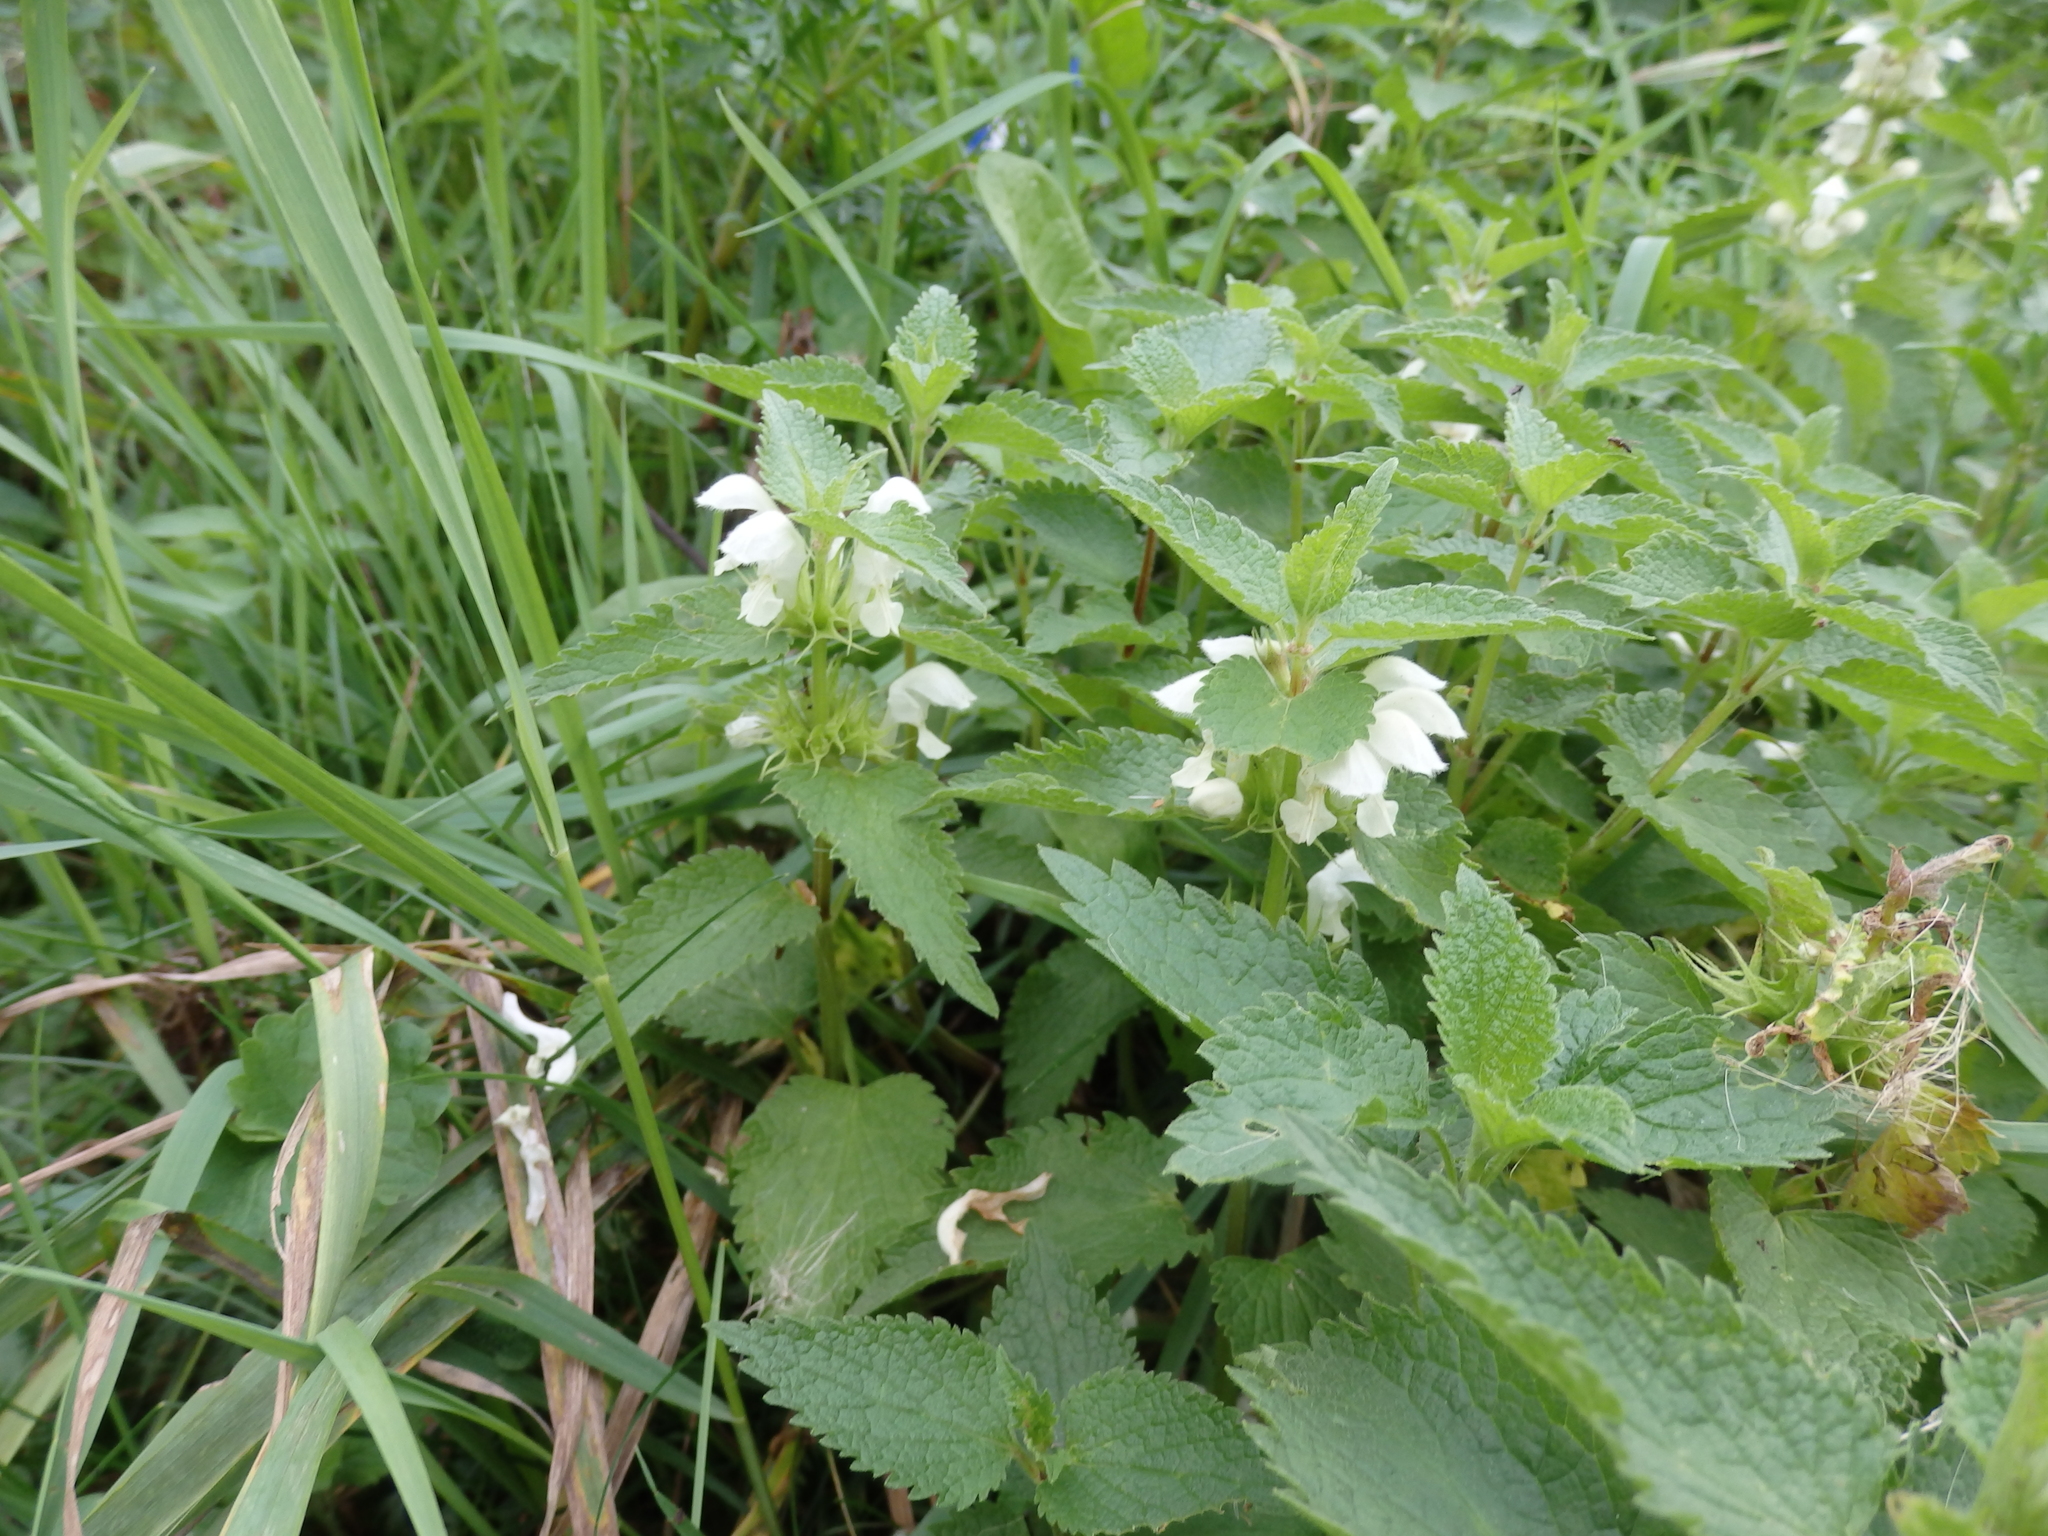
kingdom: Plantae
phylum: Tracheophyta
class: Magnoliopsida
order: Lamiales
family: Lamiaceae
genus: Lamium
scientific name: Lamium album
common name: White dead-nettle
